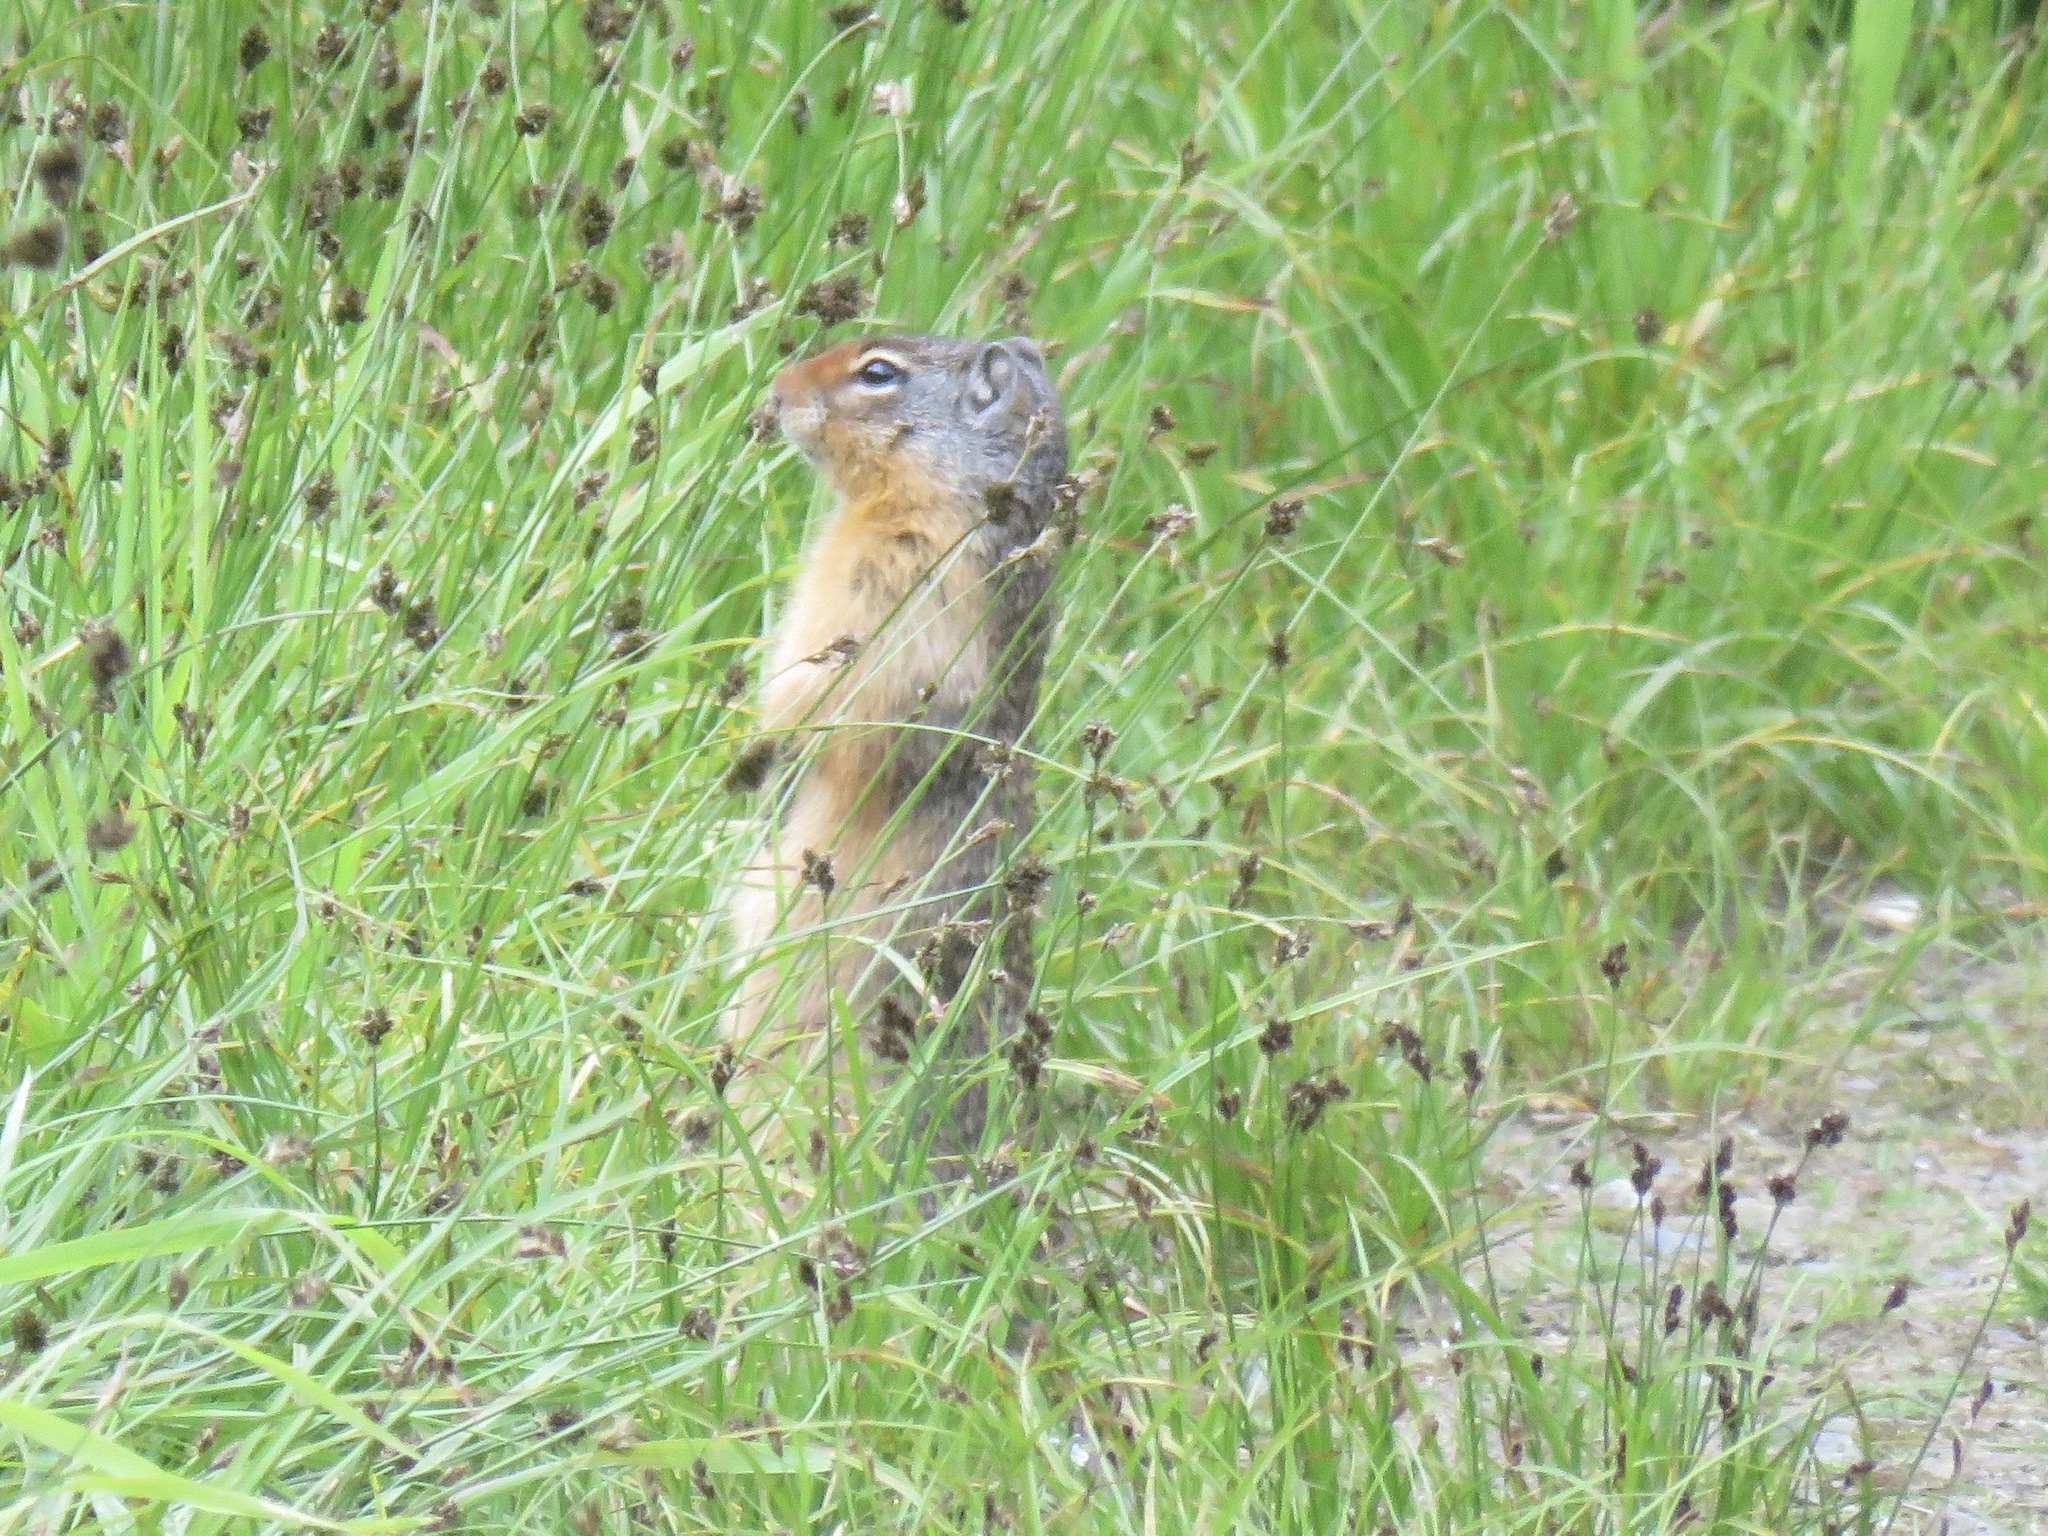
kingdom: Animalia
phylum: Chordata
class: Mammalia
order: Rodentia
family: Sciuridae
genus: Urocitellus
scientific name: Urocitellus columbianus
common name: Columbian ground squirrel
